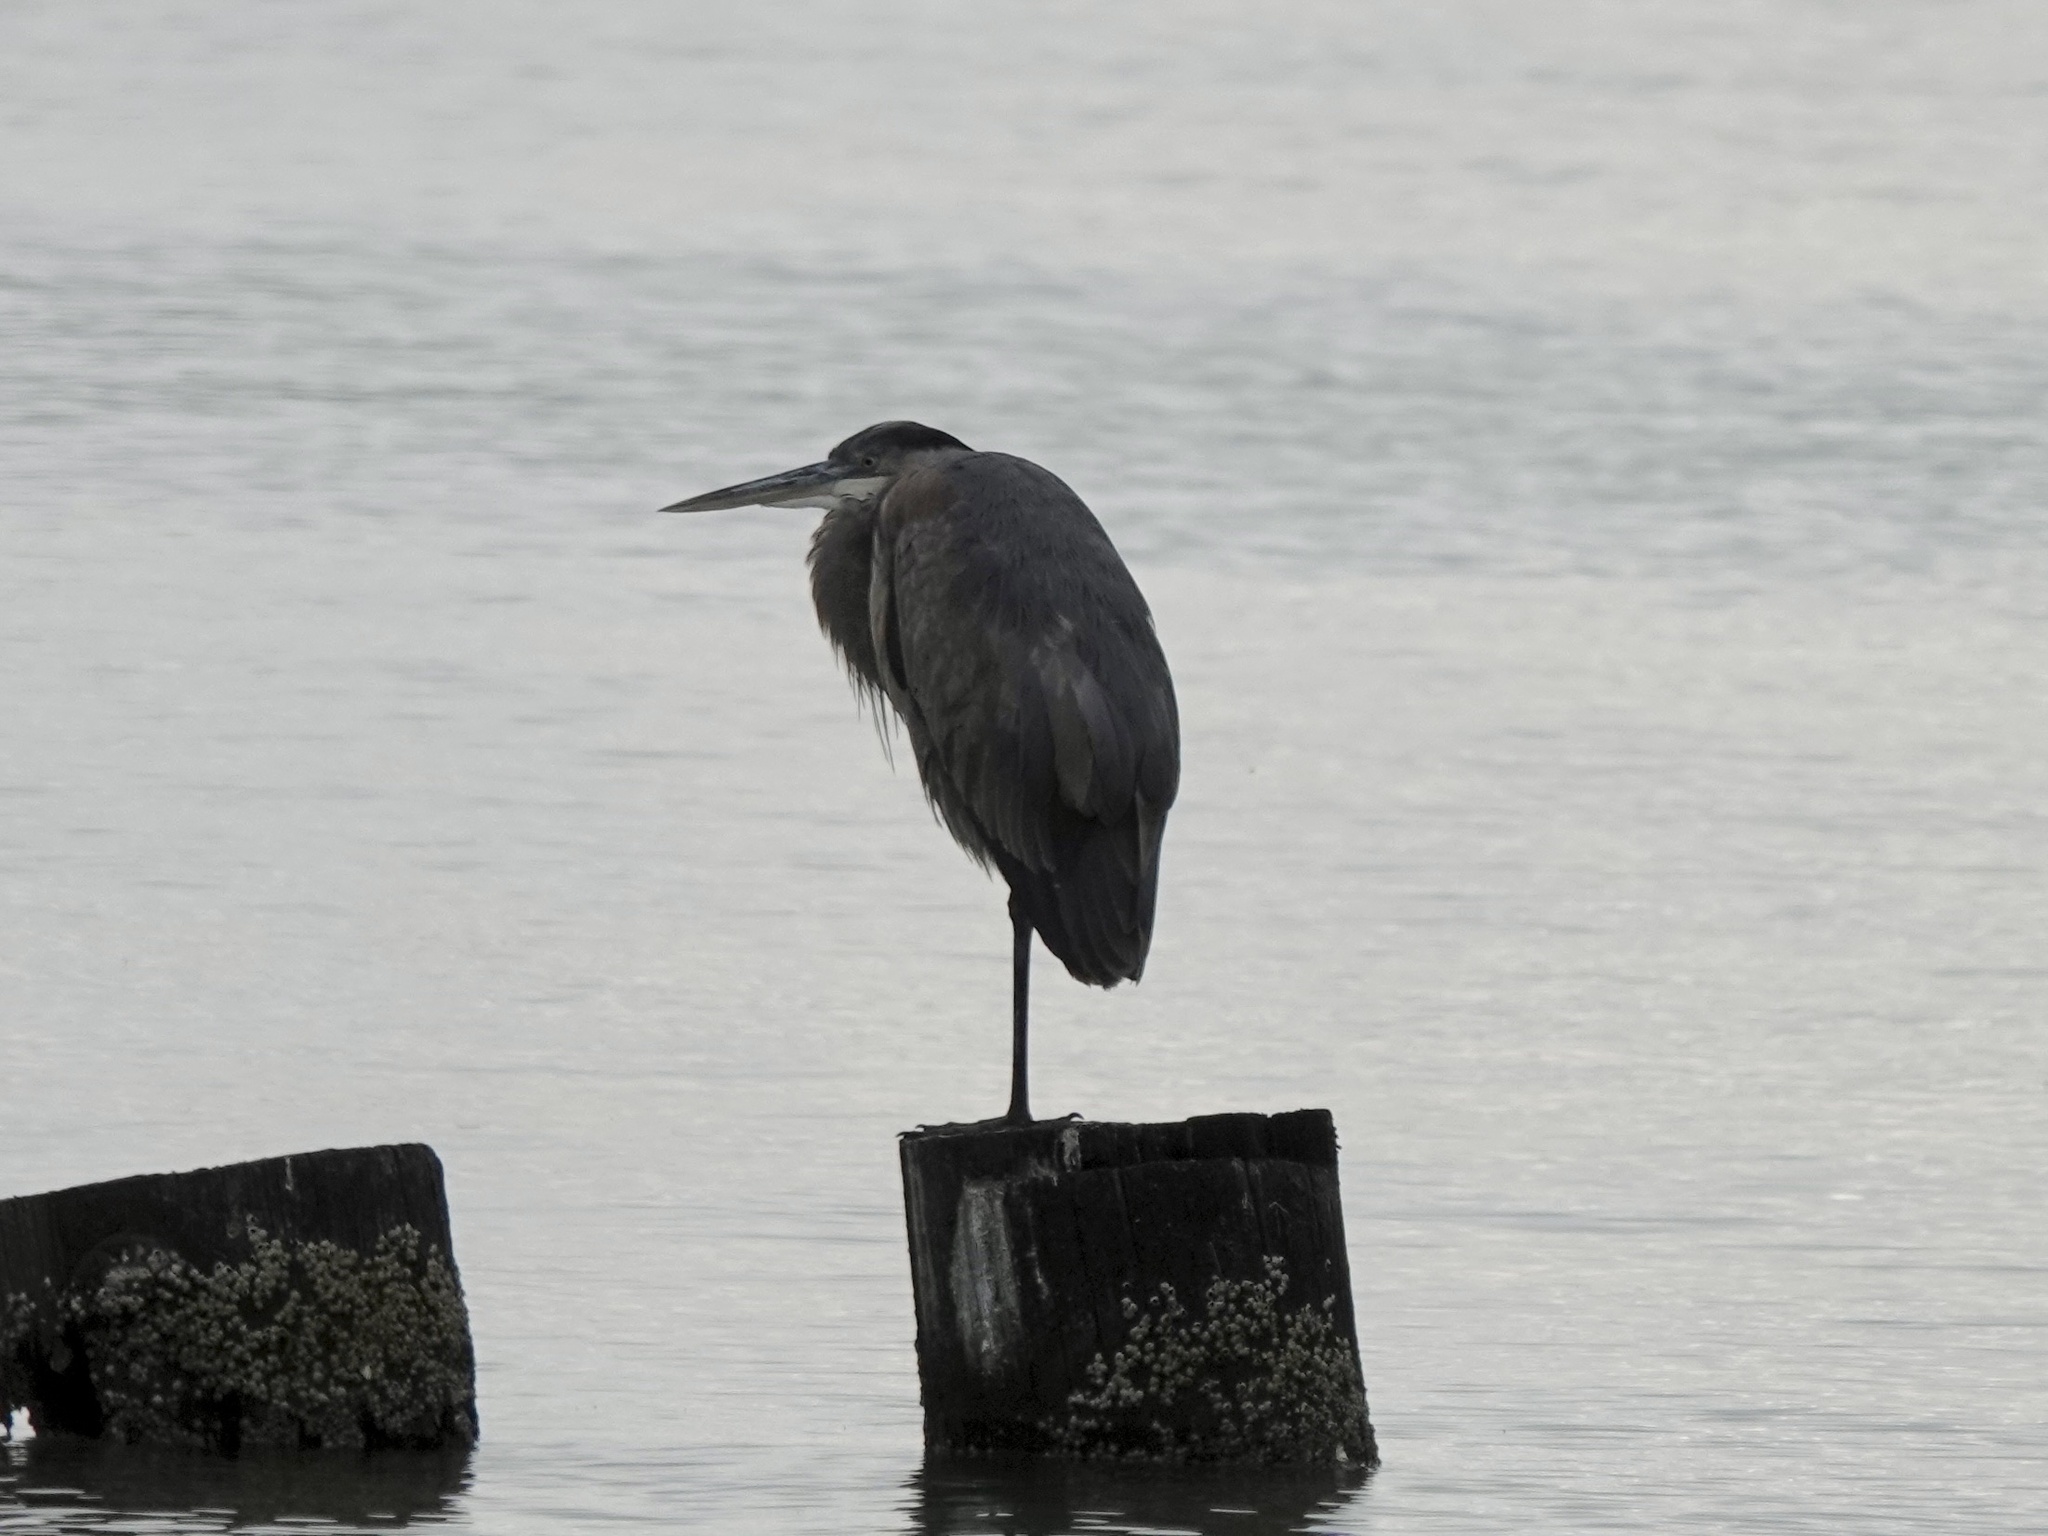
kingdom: Animalia
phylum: Chordata
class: Aves
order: Pelecaniformes
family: Ardeidae
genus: Ardea
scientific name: Ardea herodias
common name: Great blue heron
